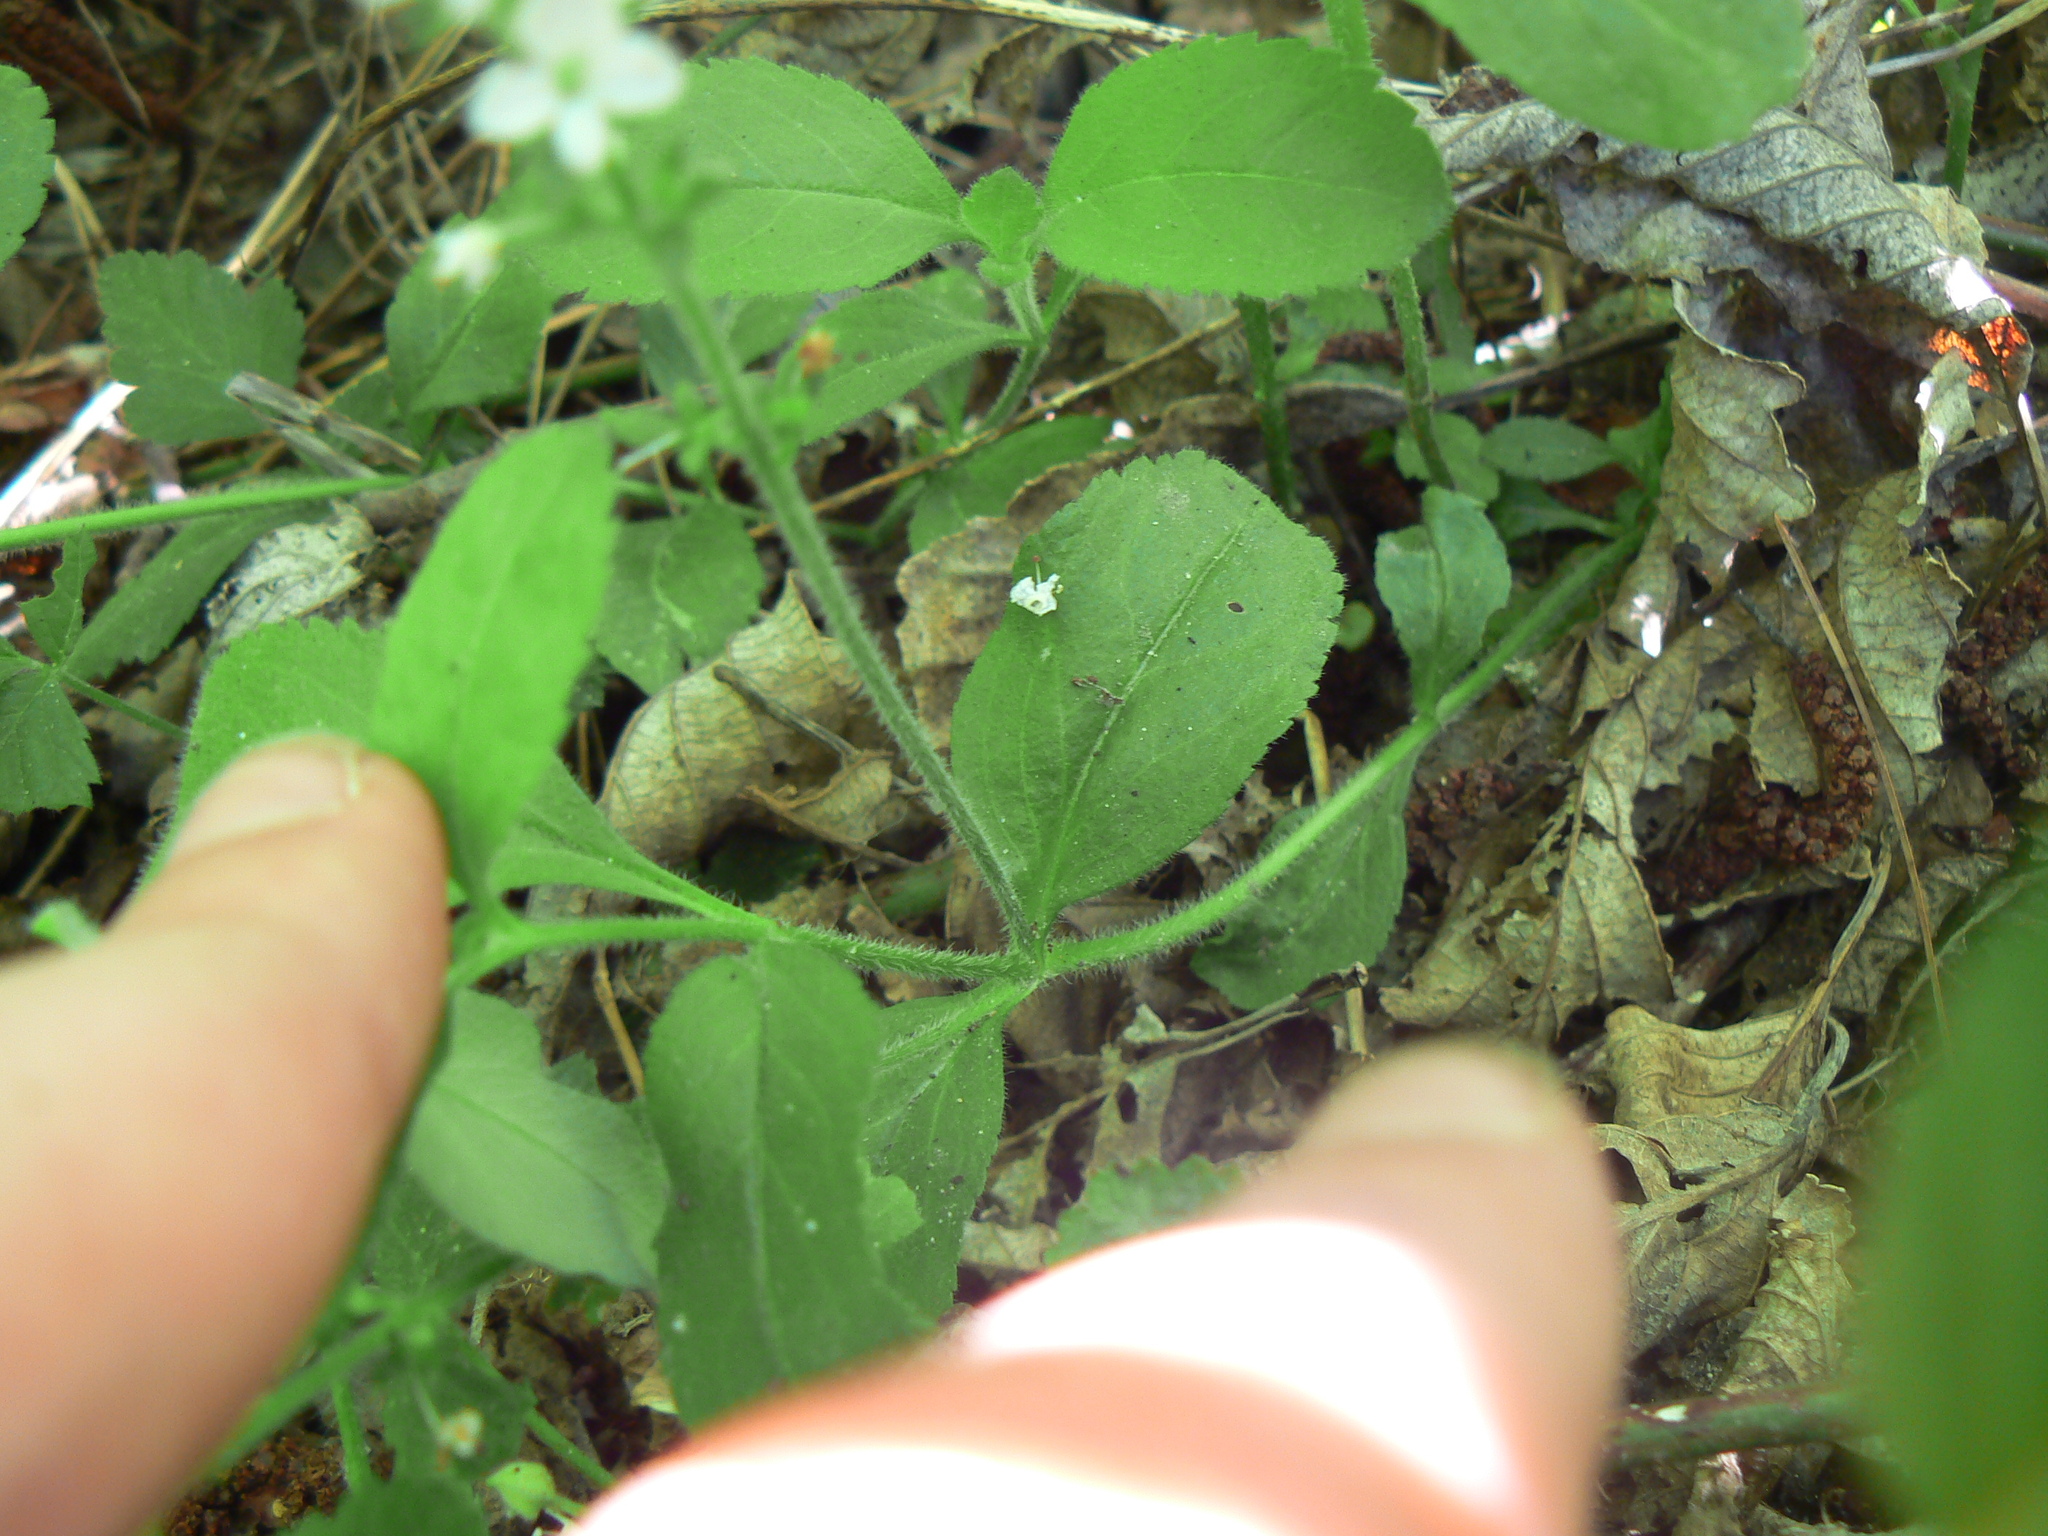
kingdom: Plantae
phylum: Tracheophyta
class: Magnoliopsida
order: Lamiales
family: Plantaginaceae
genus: Veronica
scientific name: Veronica officinalis
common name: Common speedwell
